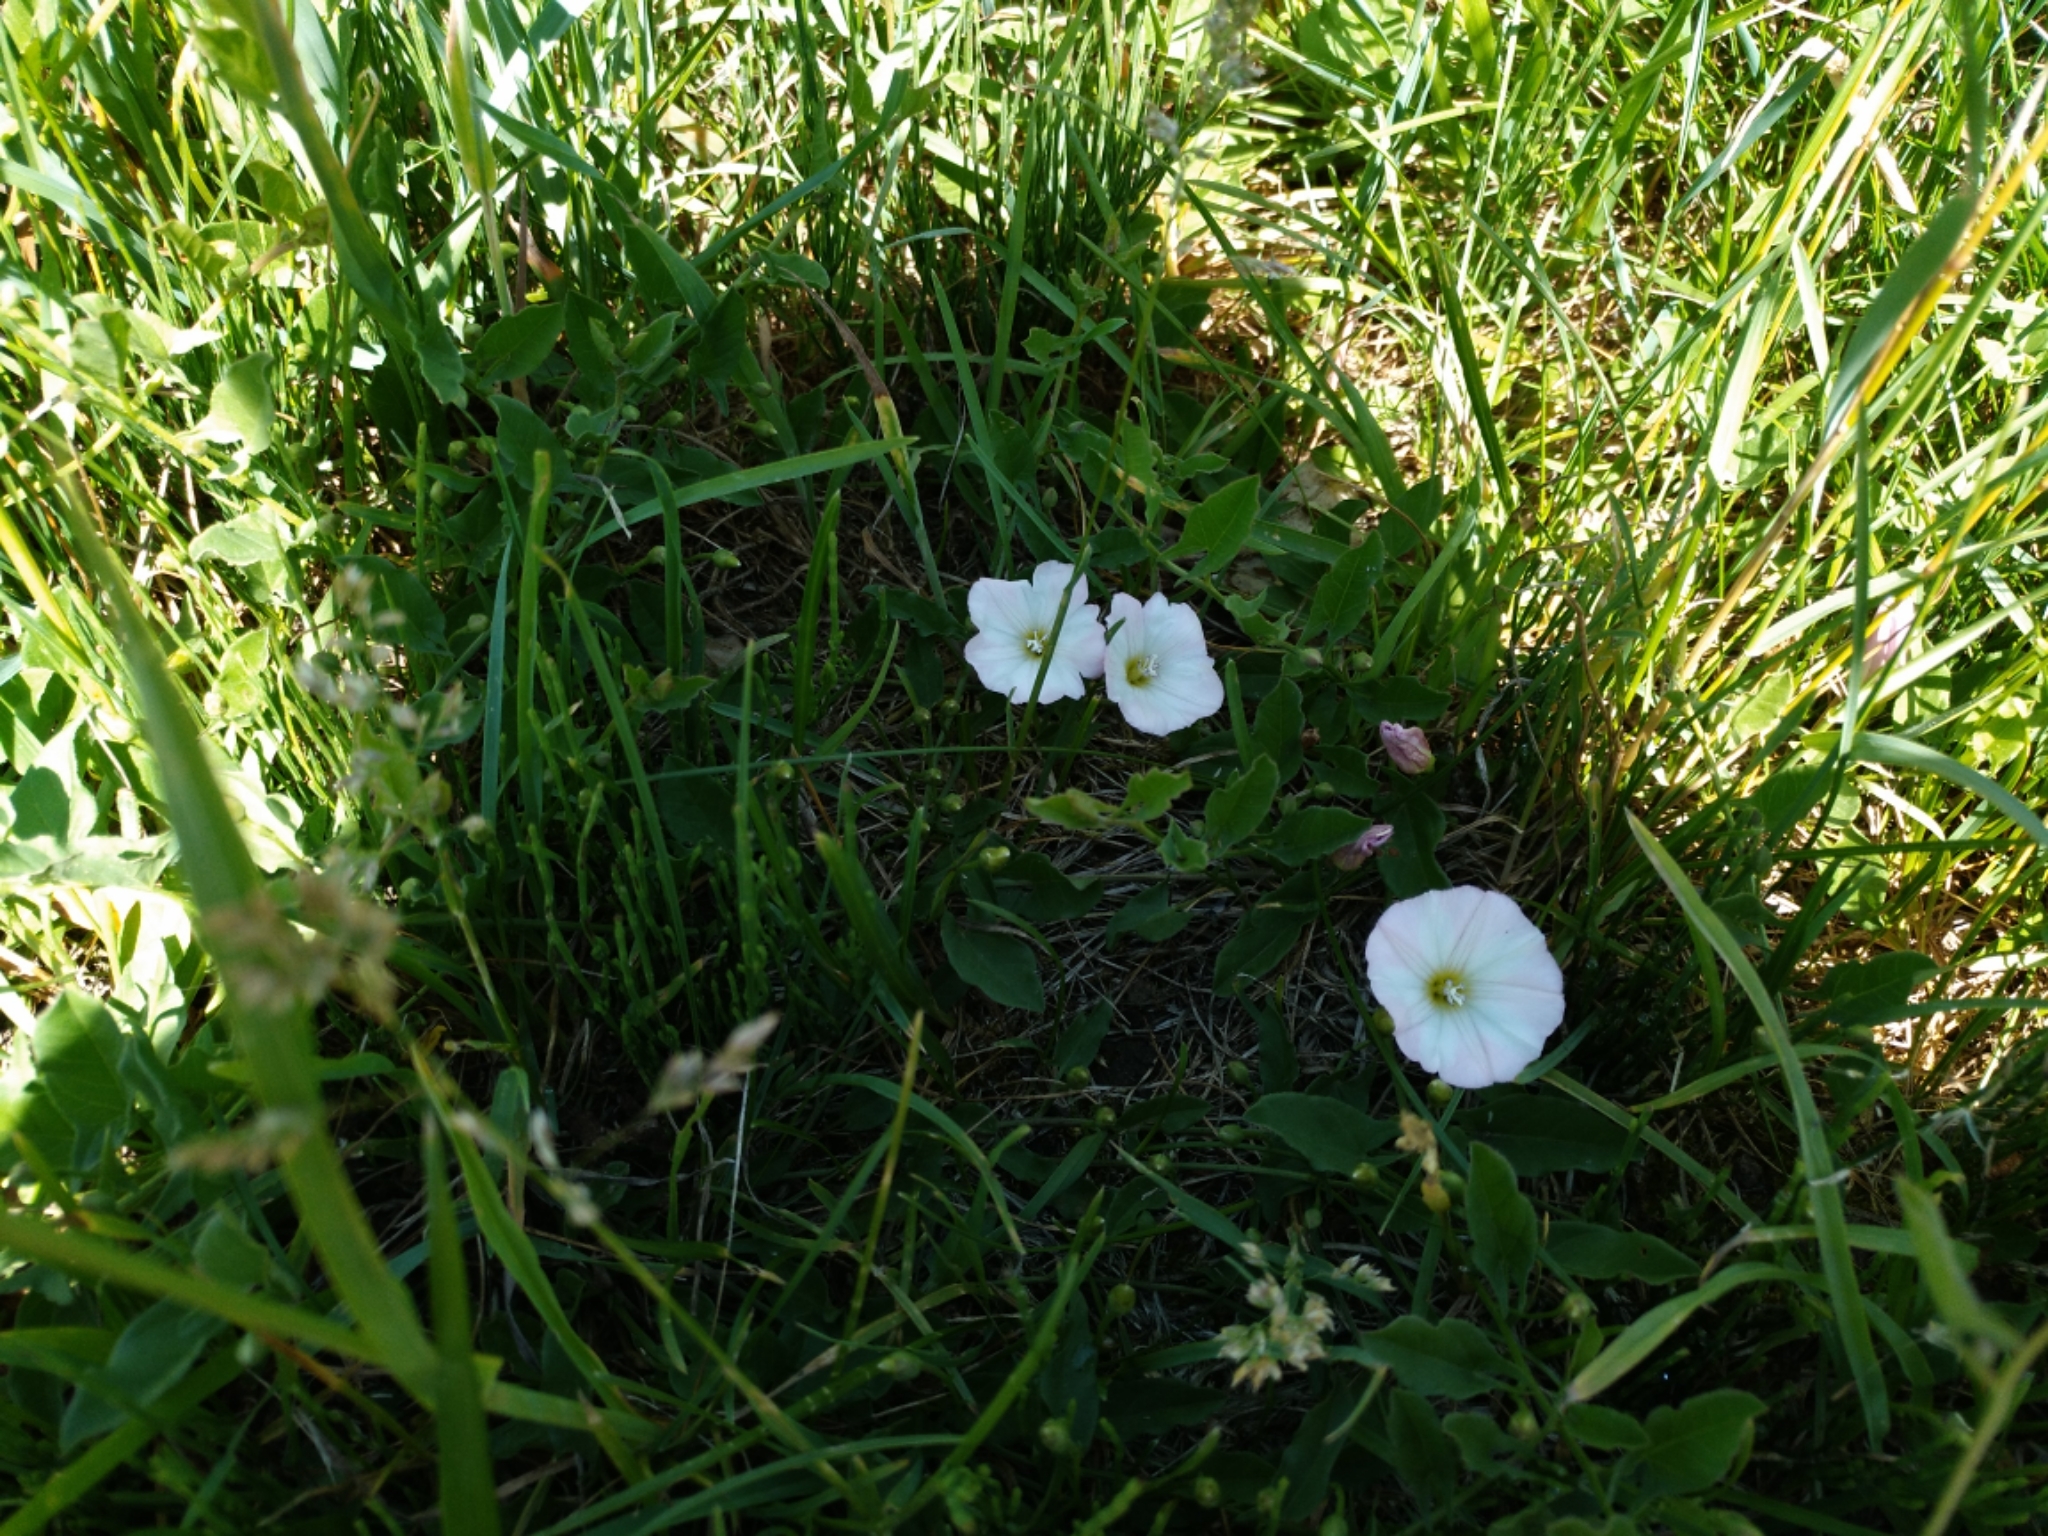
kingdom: Plantae
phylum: Tracheophyta
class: Magnoliopsida
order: Solanales
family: Convolvulaceae
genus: Convolvulus
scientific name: Convolvulus arvensis
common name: Field bindweed
